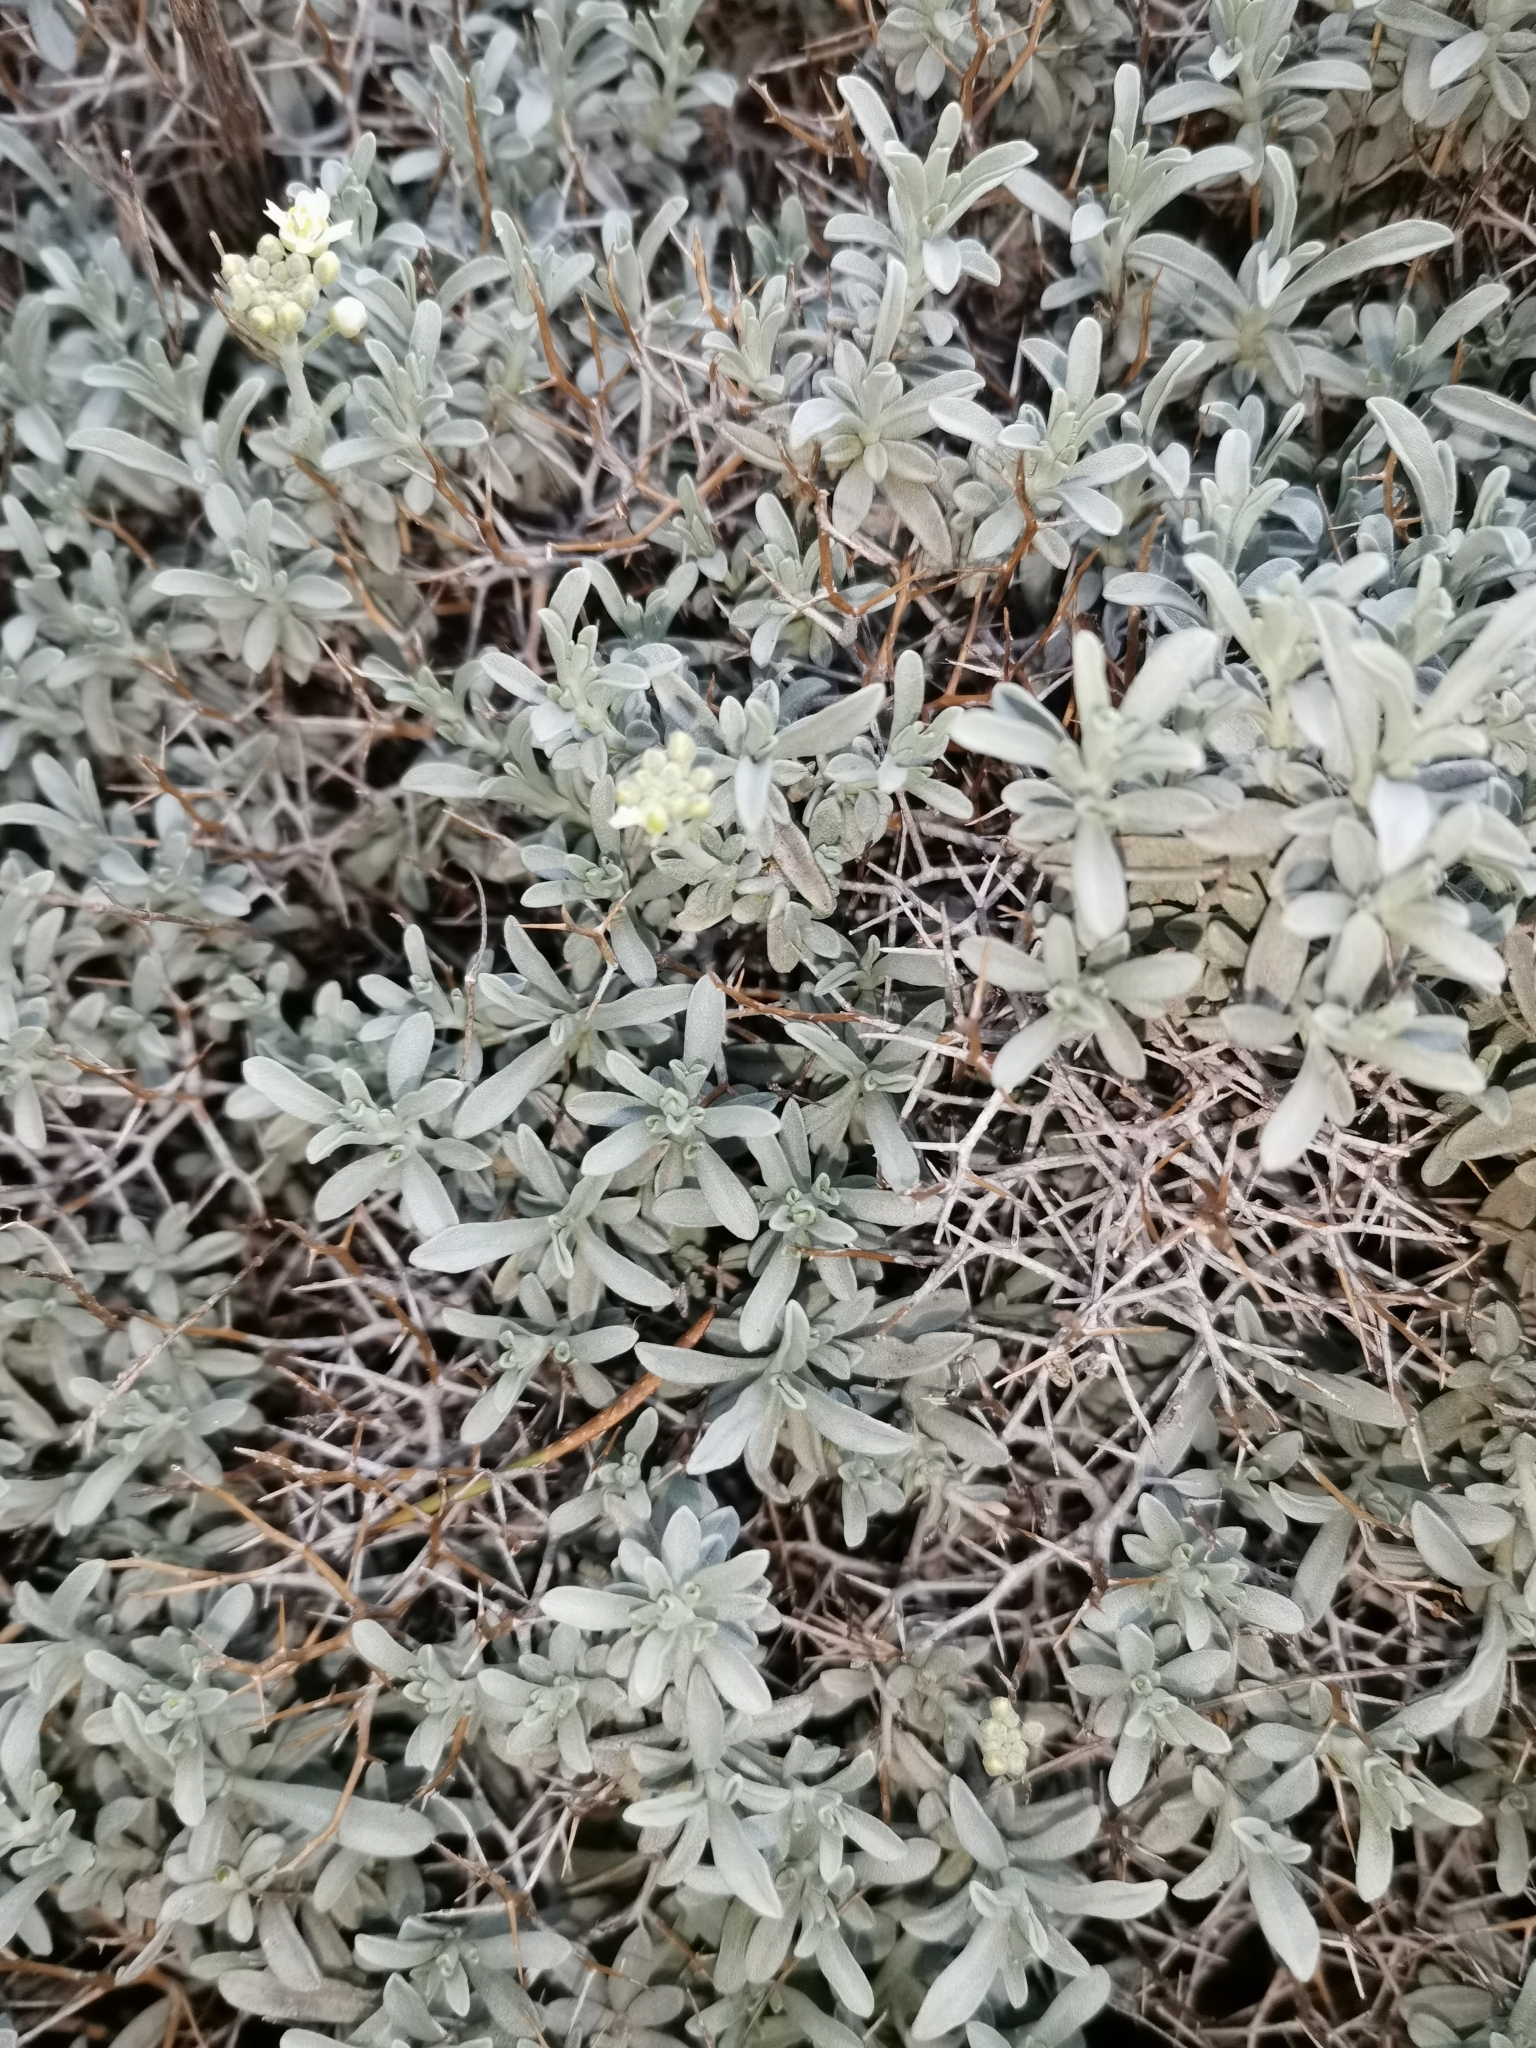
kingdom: Plantae
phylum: Tracheophyta
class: Magnoliopsida
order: Brassicales
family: Brassicaceae
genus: Hormathophylla
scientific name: Hormathophylla spinosa
